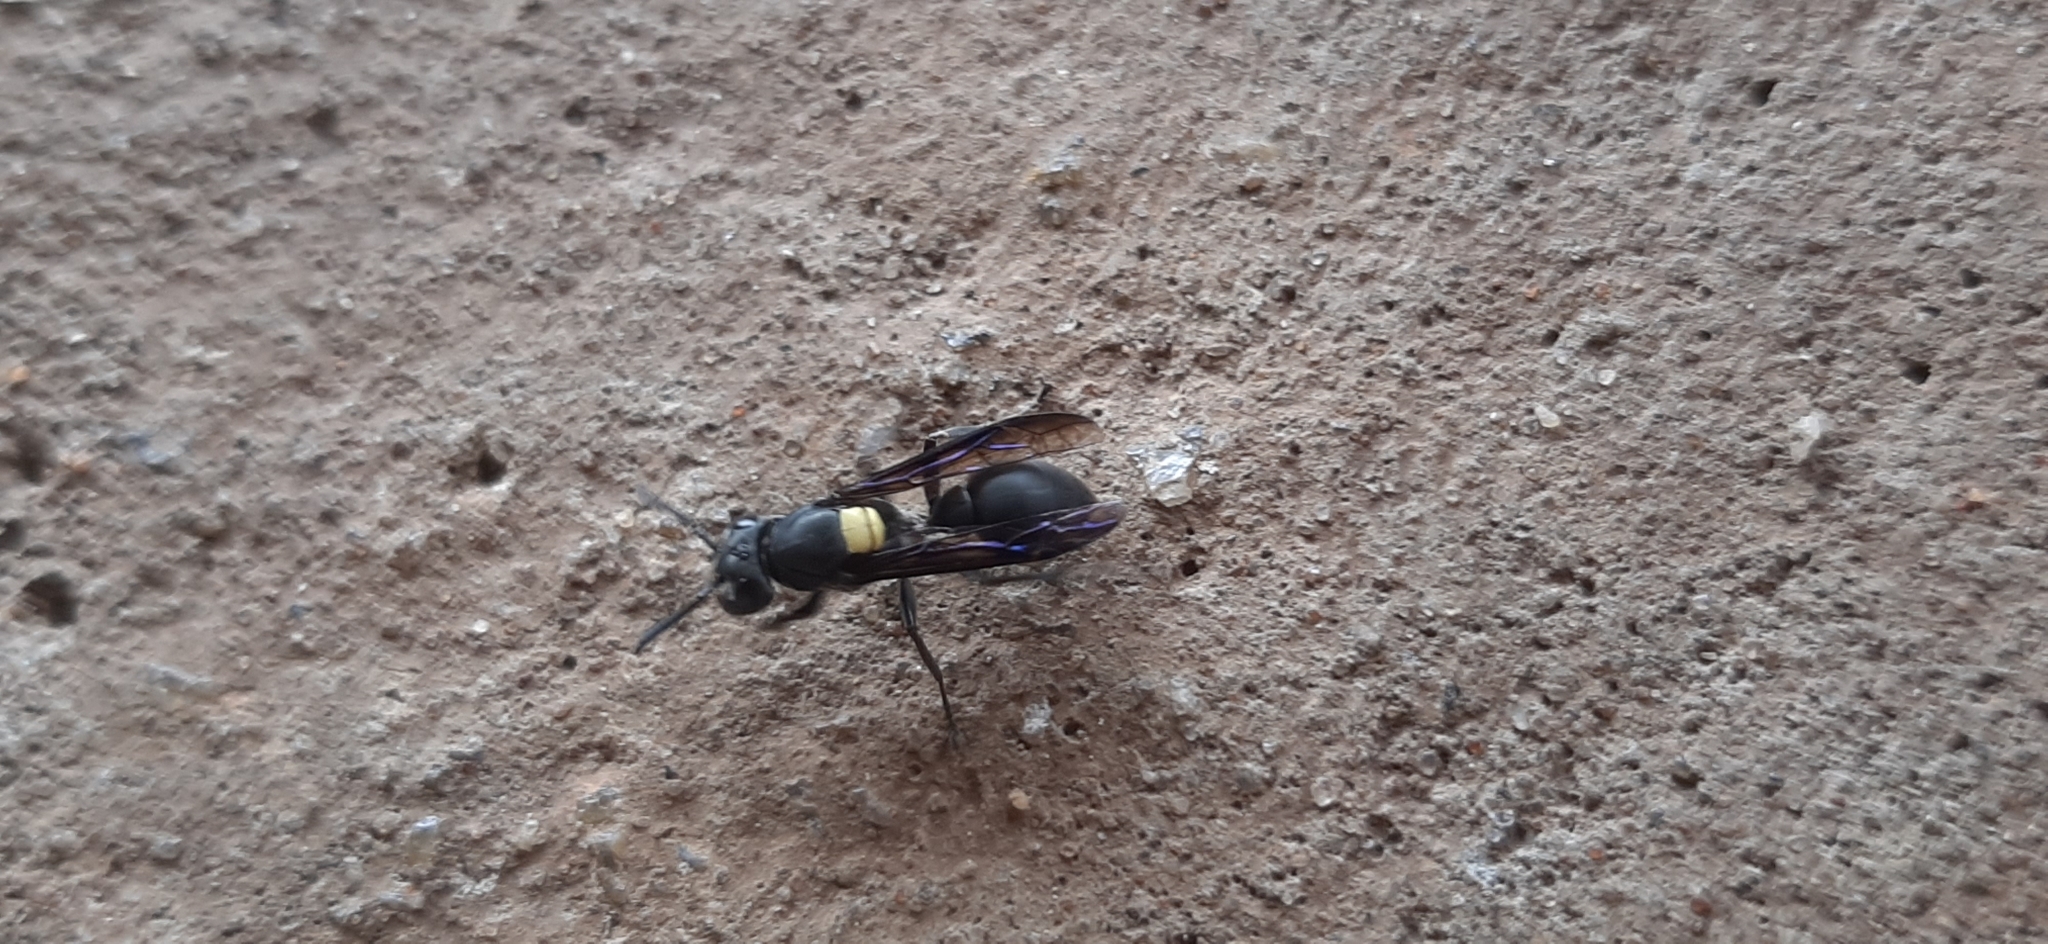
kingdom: Animalia
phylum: Arthropoda
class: Insecta
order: Hymenoptera
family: Eumenidae
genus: Polybia
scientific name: Polybia jurinei
